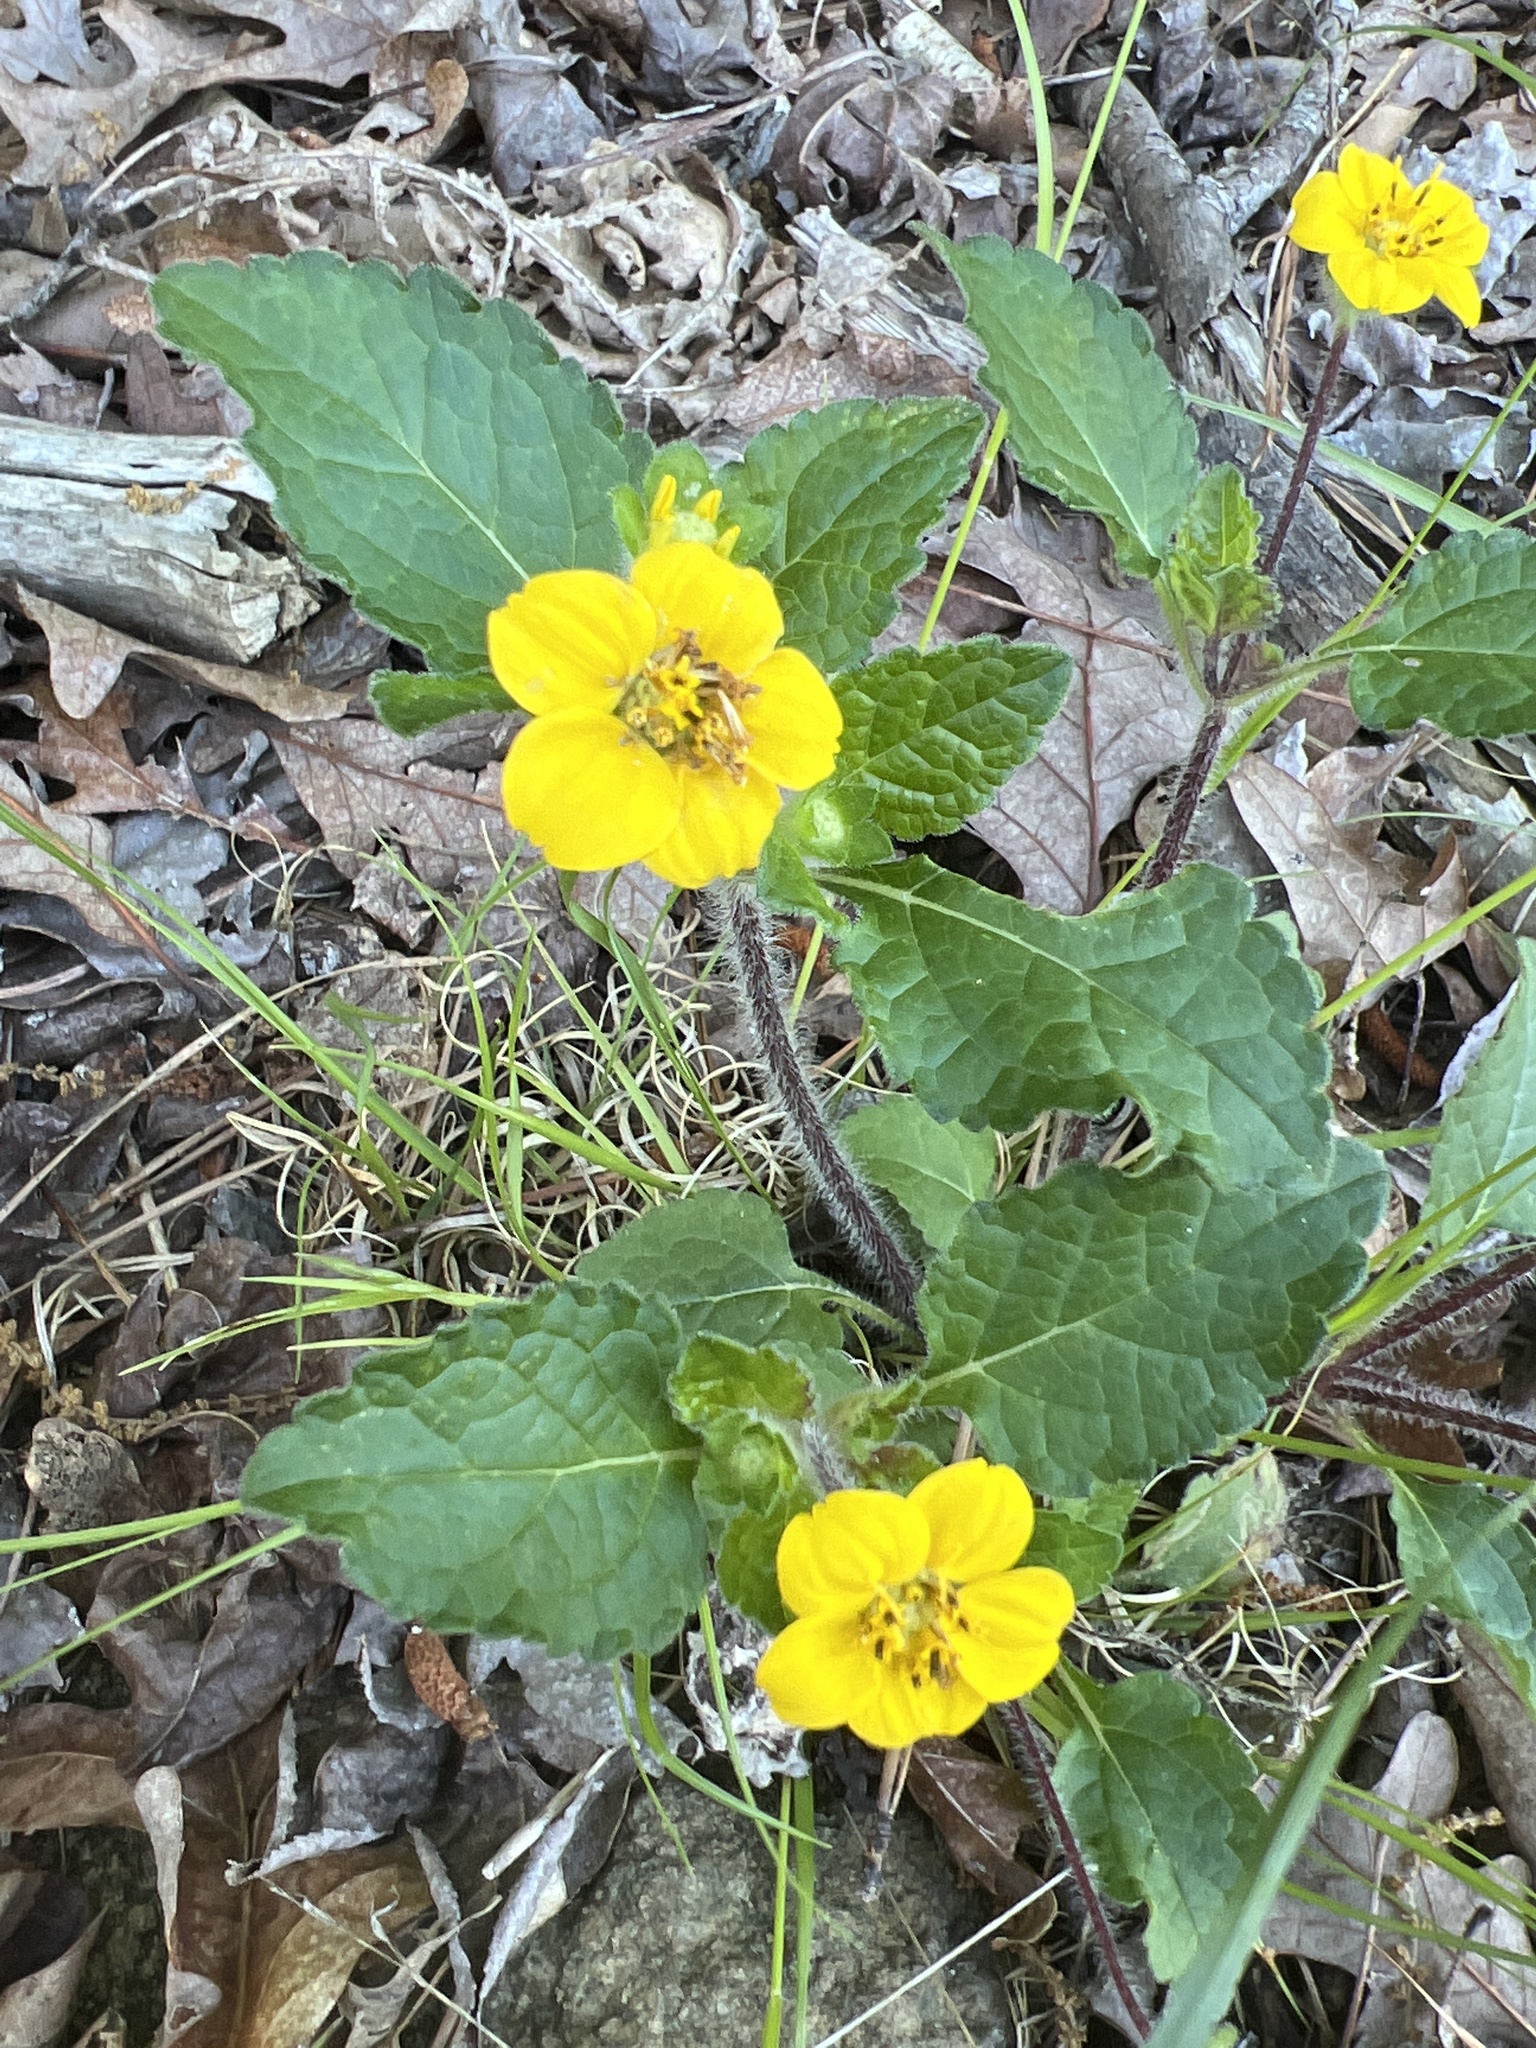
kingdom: Plantae
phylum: Tracheophyta
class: Magnoliopsida
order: Asterales
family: Asteraceae
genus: Chrysogonum
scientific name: Chrysogonum virginianum
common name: Golden-knee
